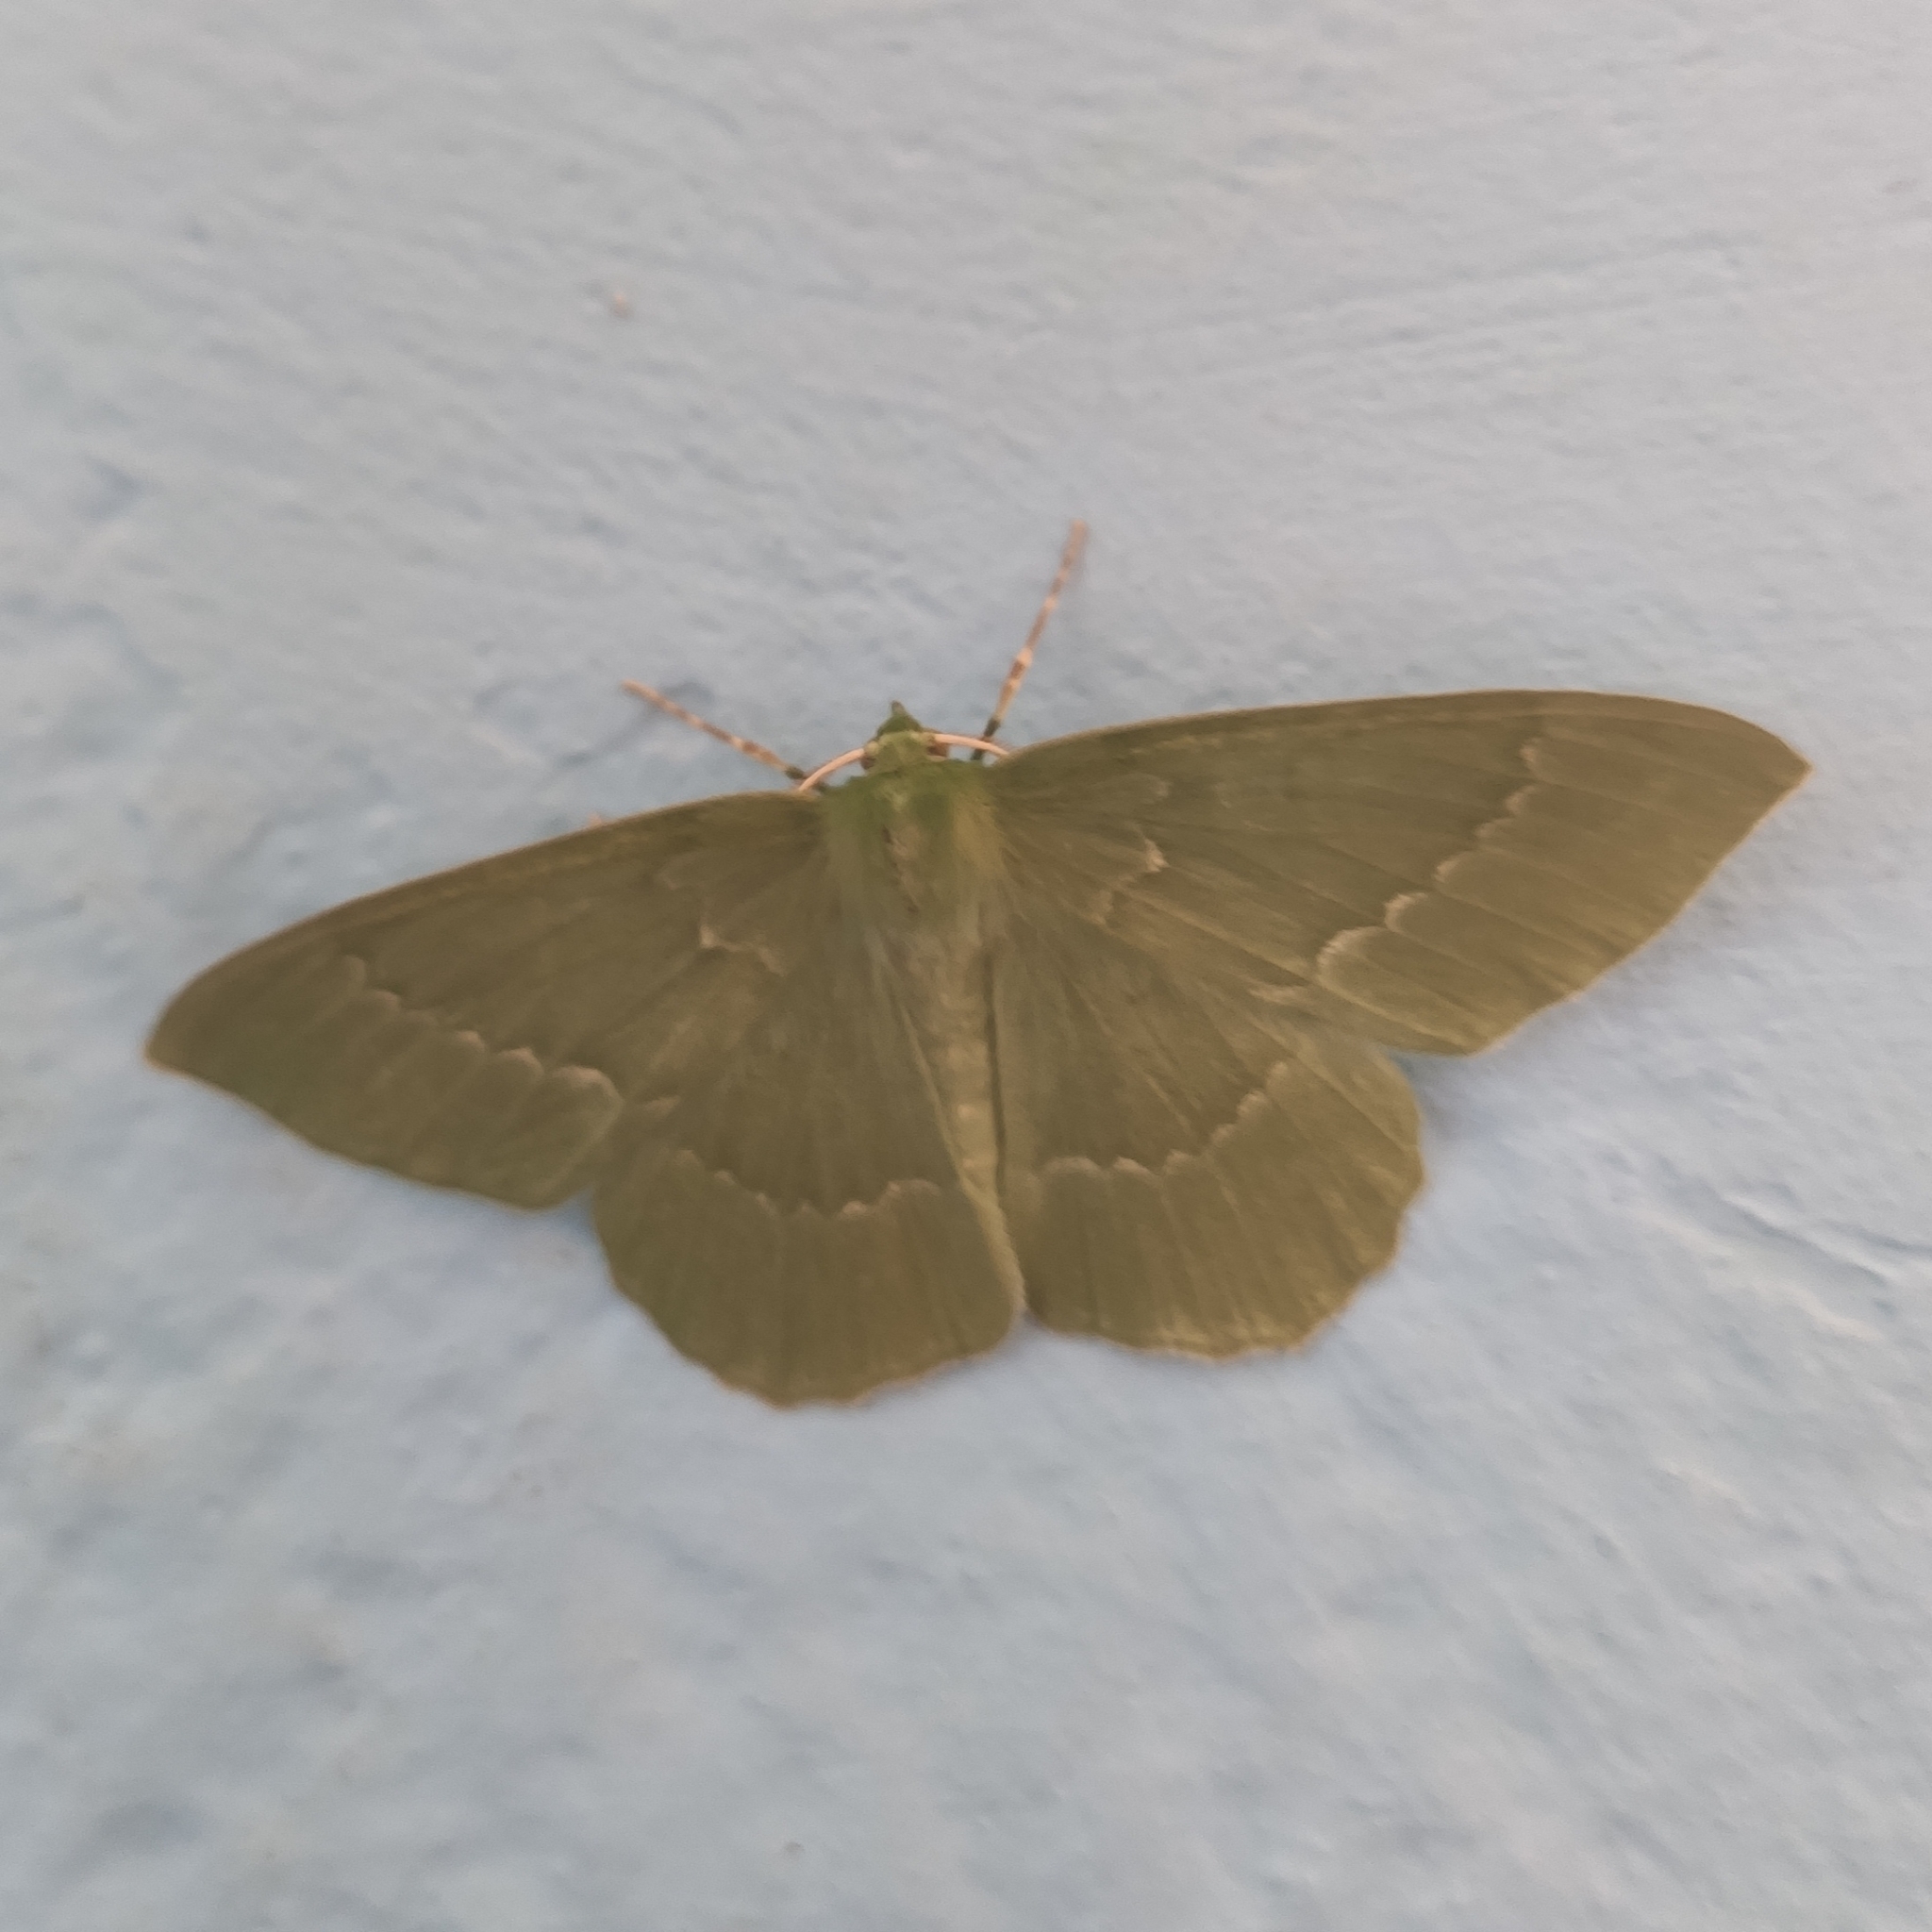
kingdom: Animalia
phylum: Arthropoda
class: Insecta
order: Lepidoptera
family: Geometridae
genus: Geometra
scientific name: Geometra papilionaria
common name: Large emerald
